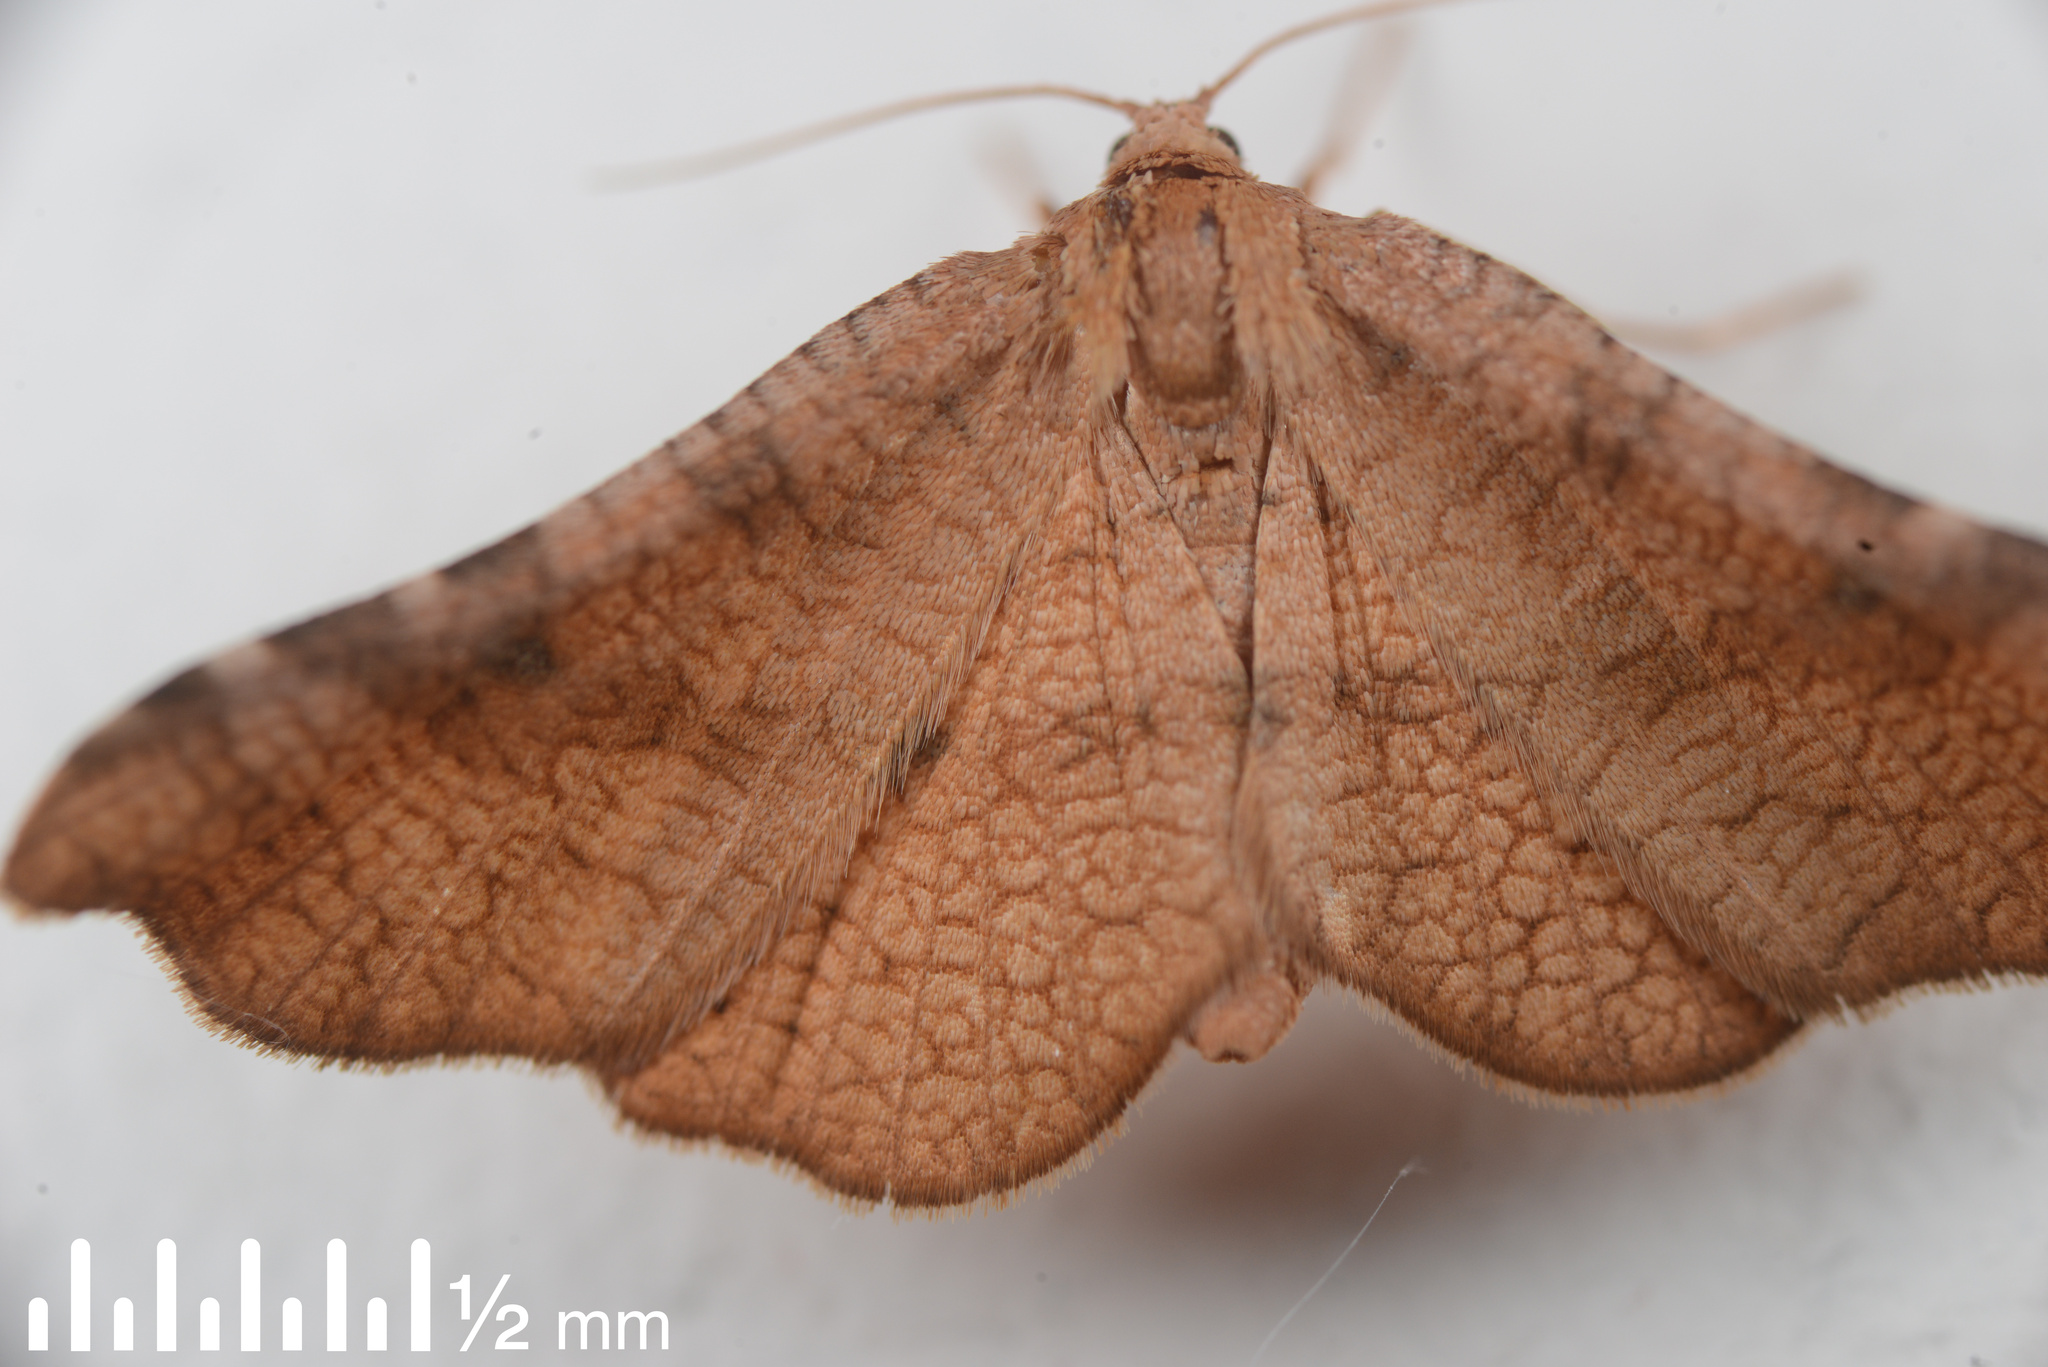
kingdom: Animalia
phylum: Arthropoda
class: Insecta
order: Lepidoptera
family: Thyrididae
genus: Morova
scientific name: Morova subfasciata
